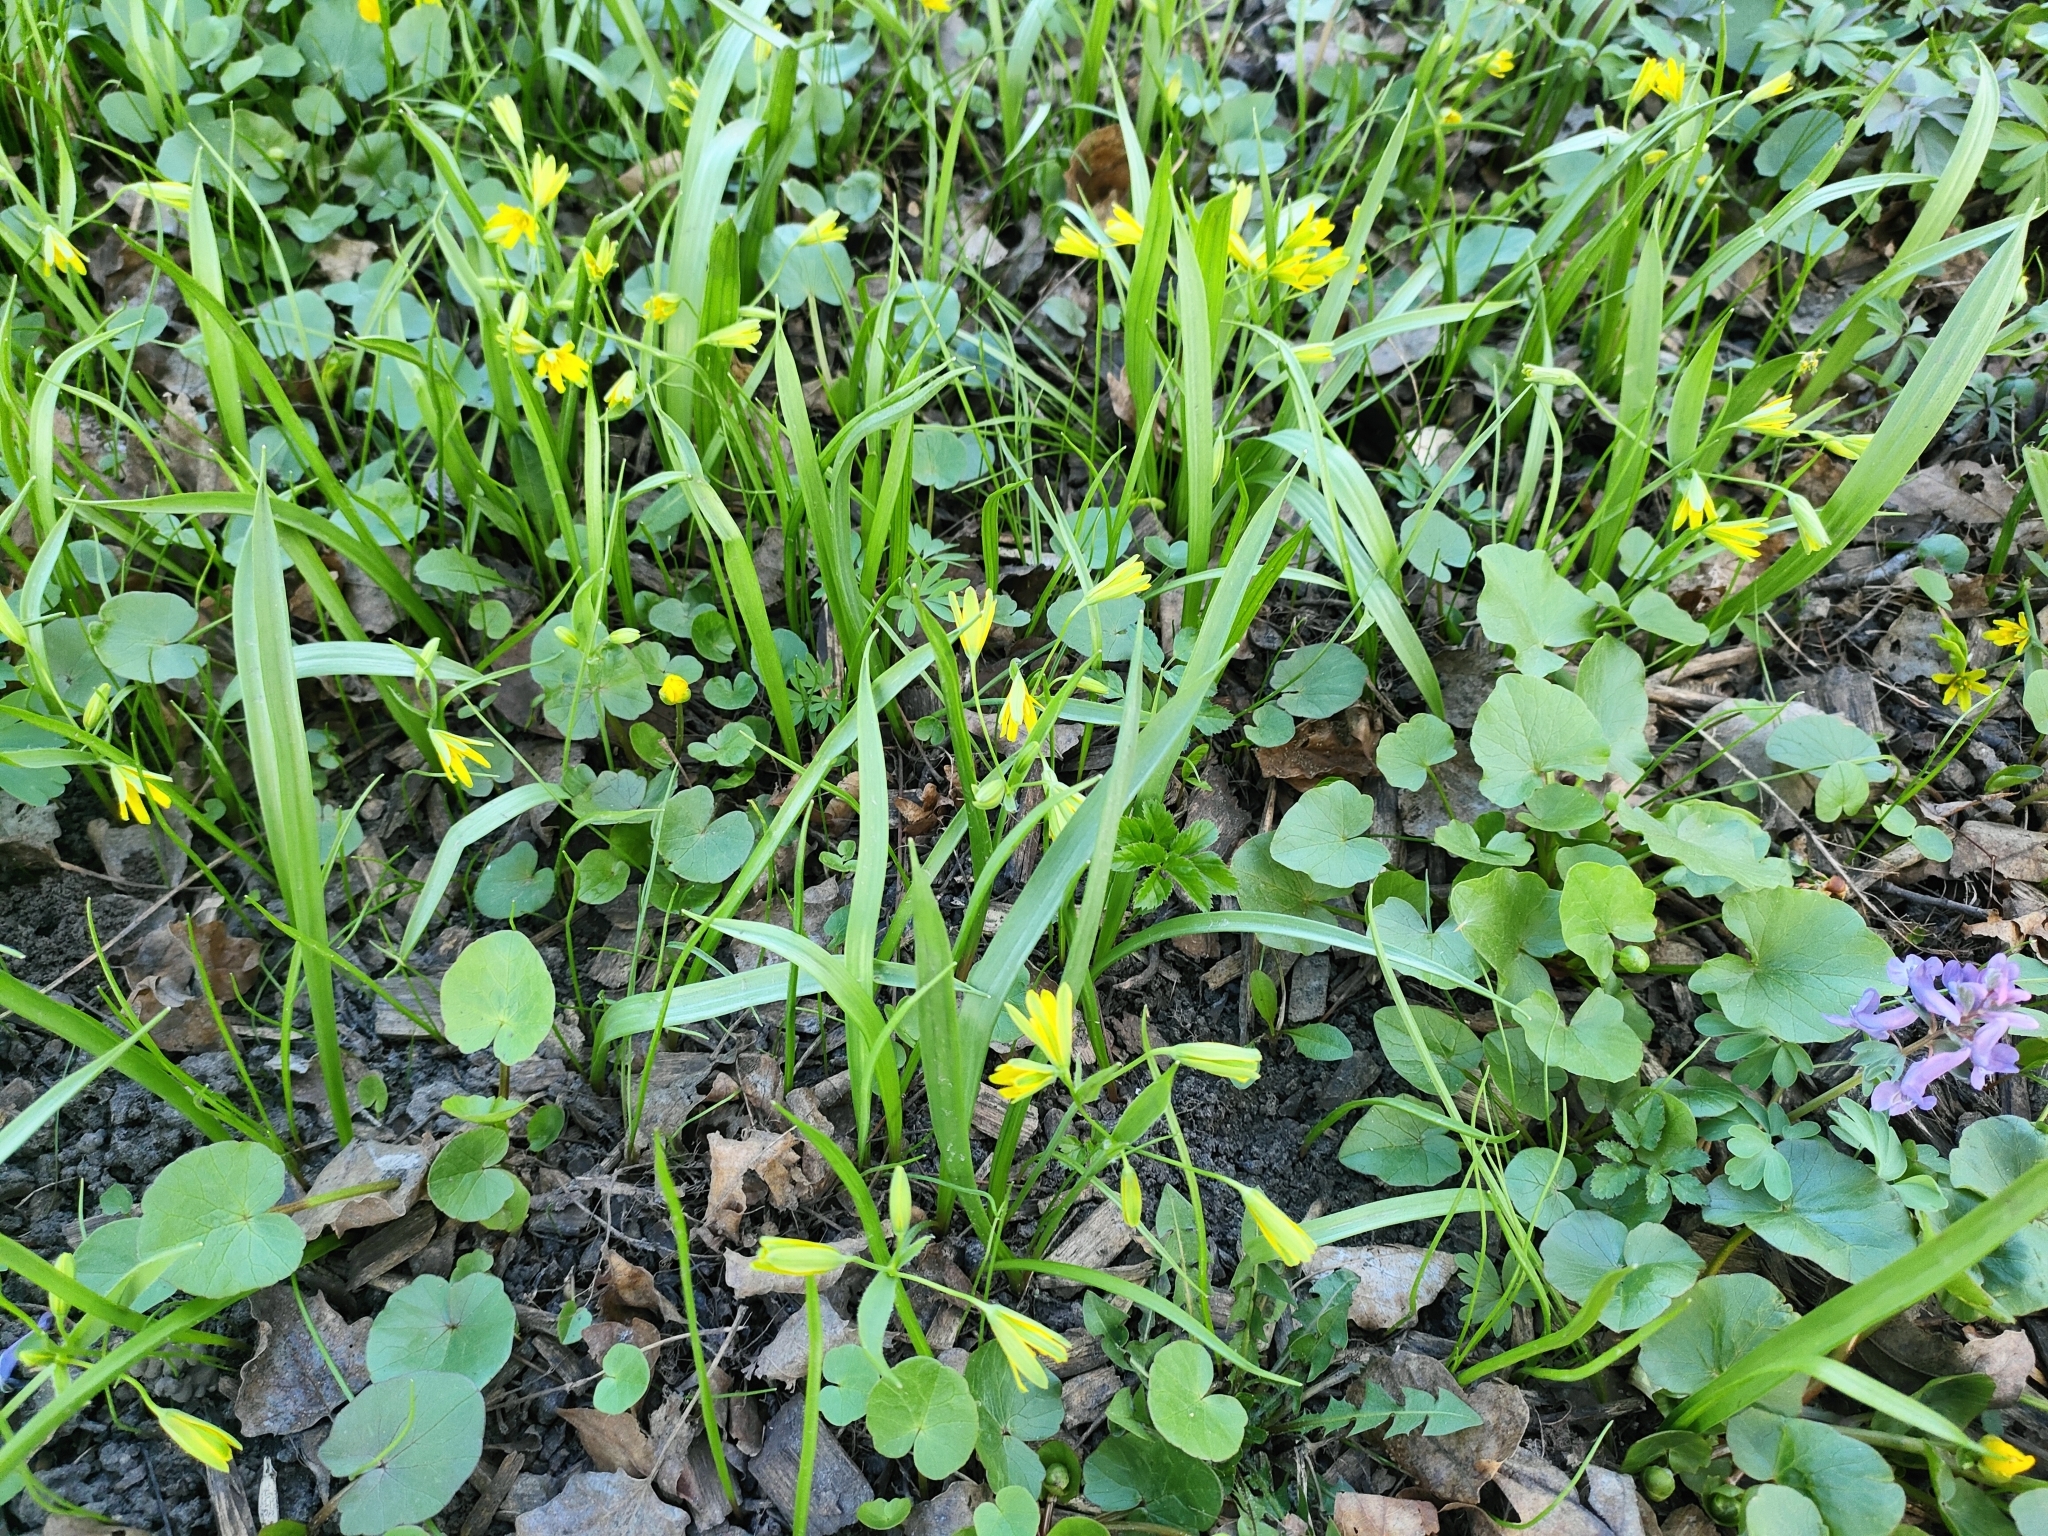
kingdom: Plantae
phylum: Tracheophyta
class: Liliopsida
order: Liliales
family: Liliaceae
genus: Gagea
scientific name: Gagea lutea
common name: Yellow star-of-bethlehem
